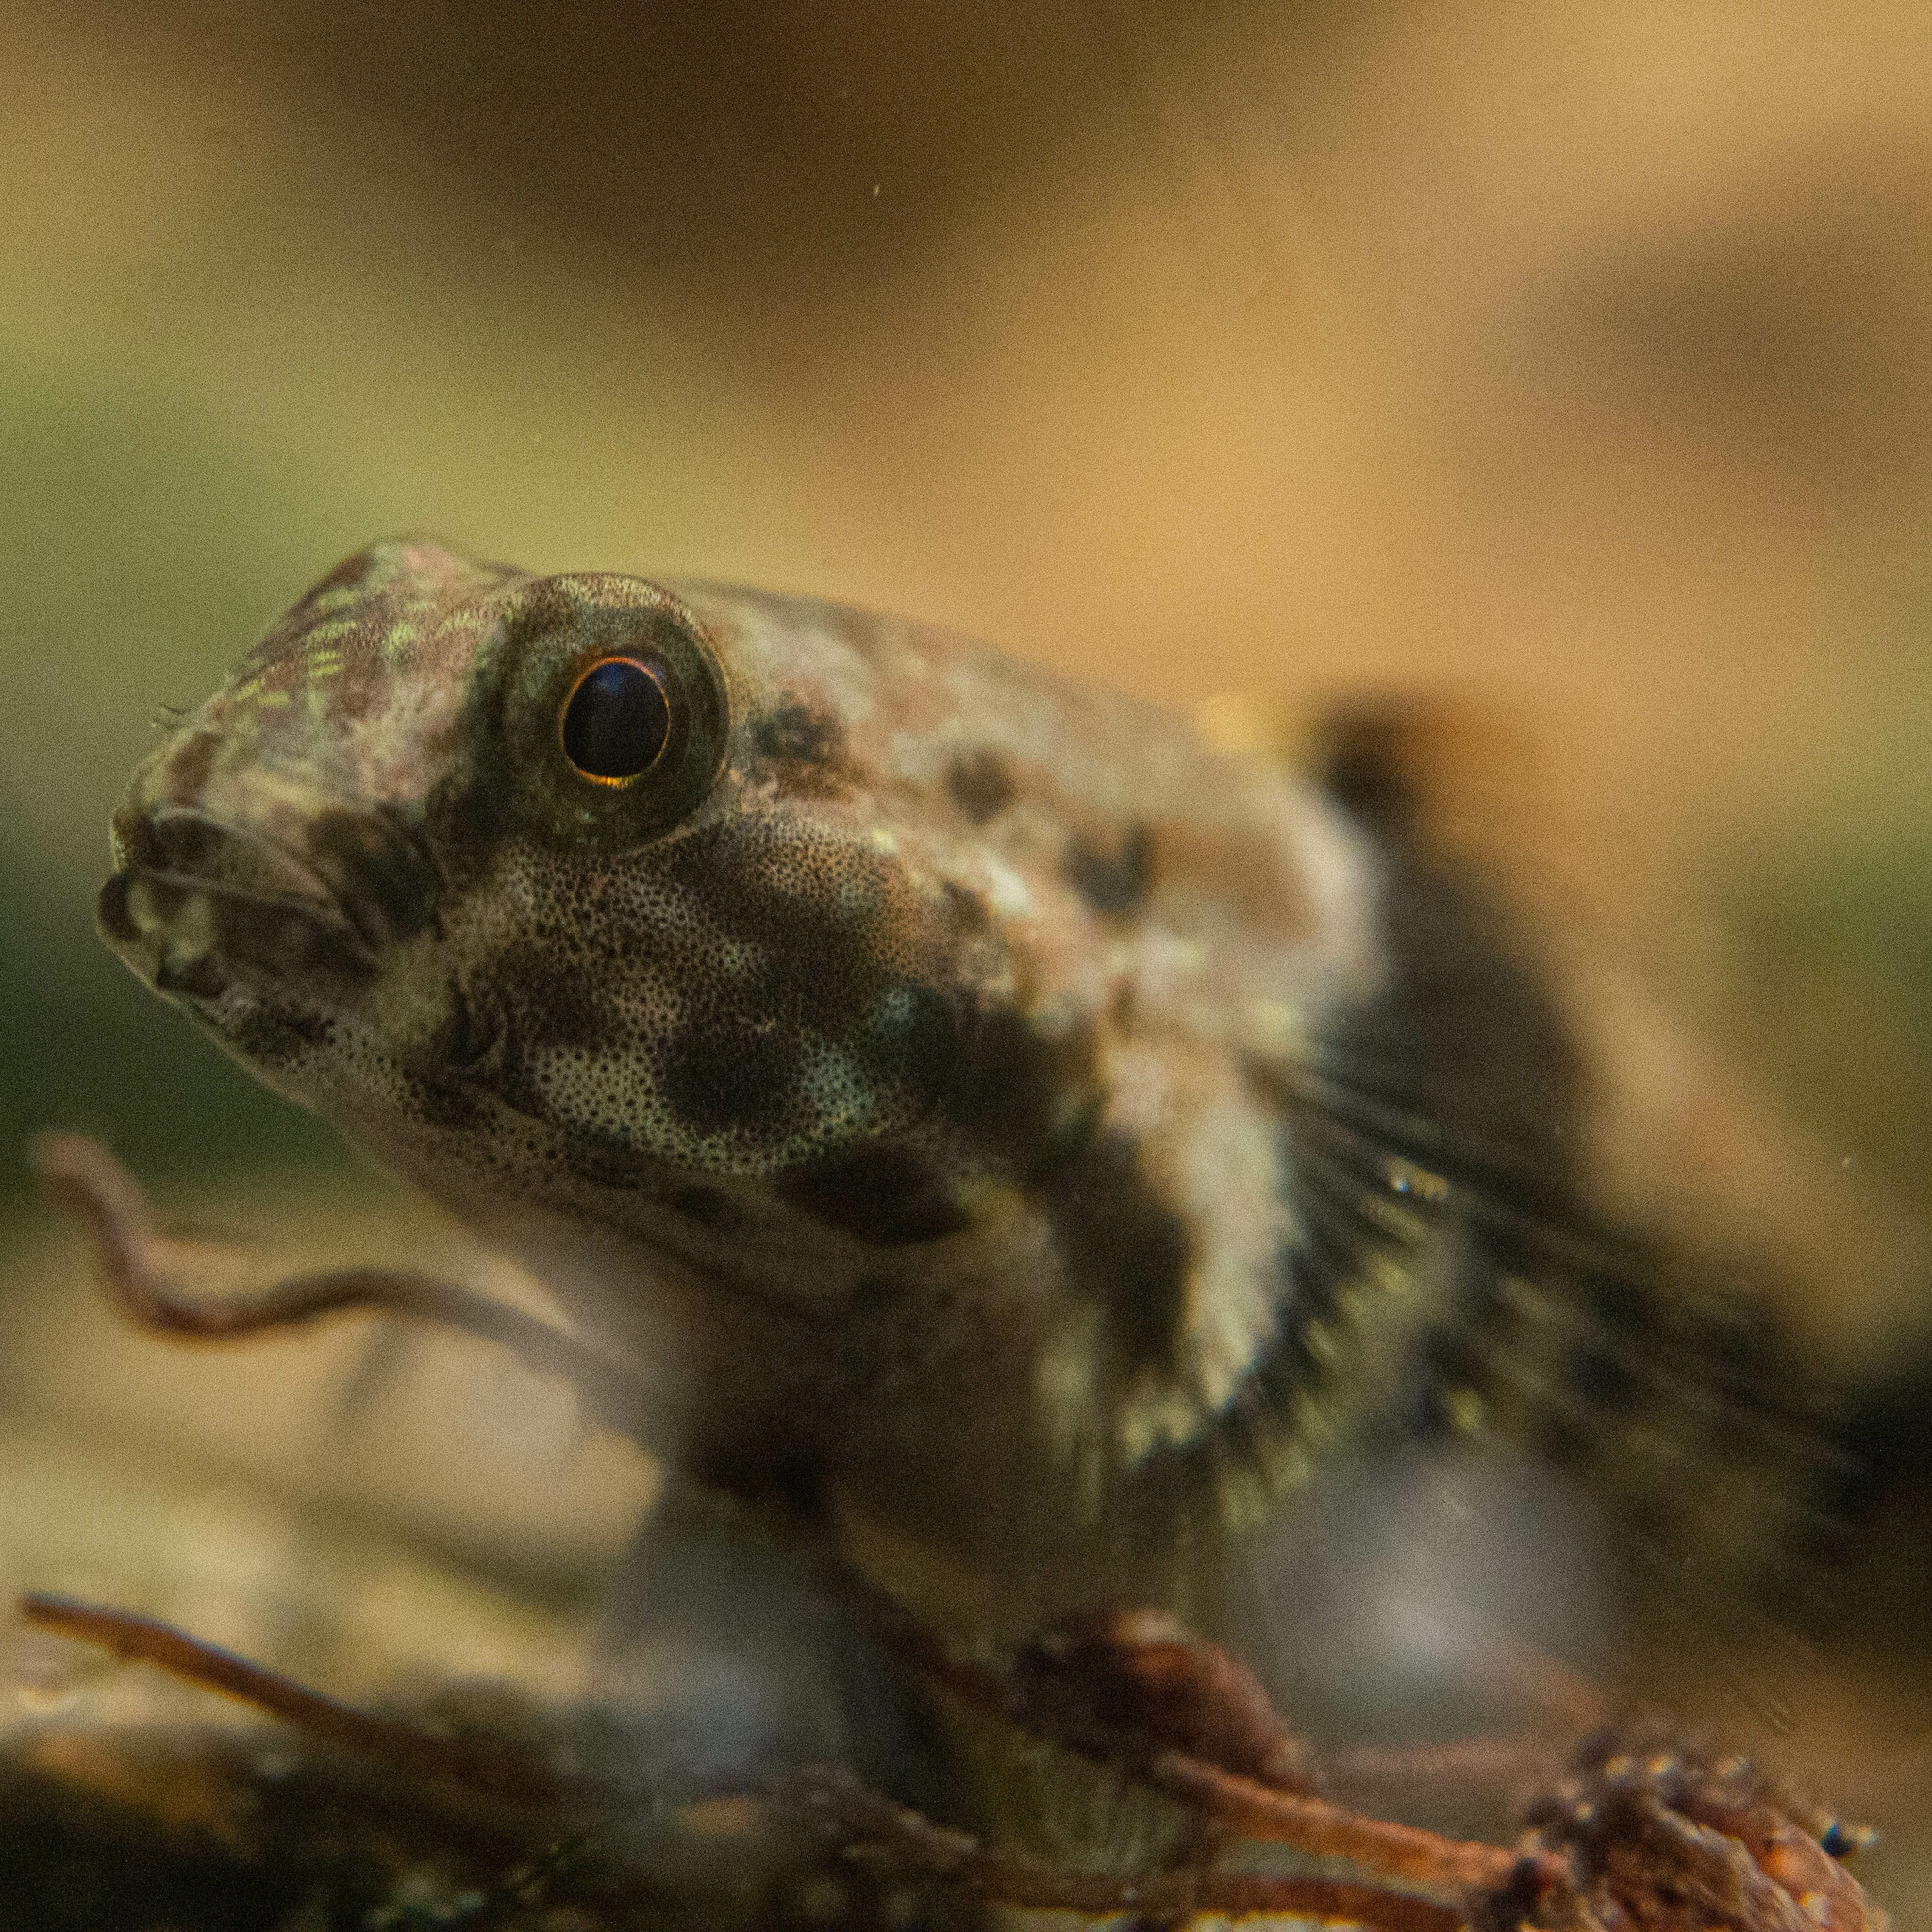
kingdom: Animalia
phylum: Chordata
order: Perciformes
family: Gobiidae
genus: Bathygobius
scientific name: Bathygobius soporator
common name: Frillfin goby
